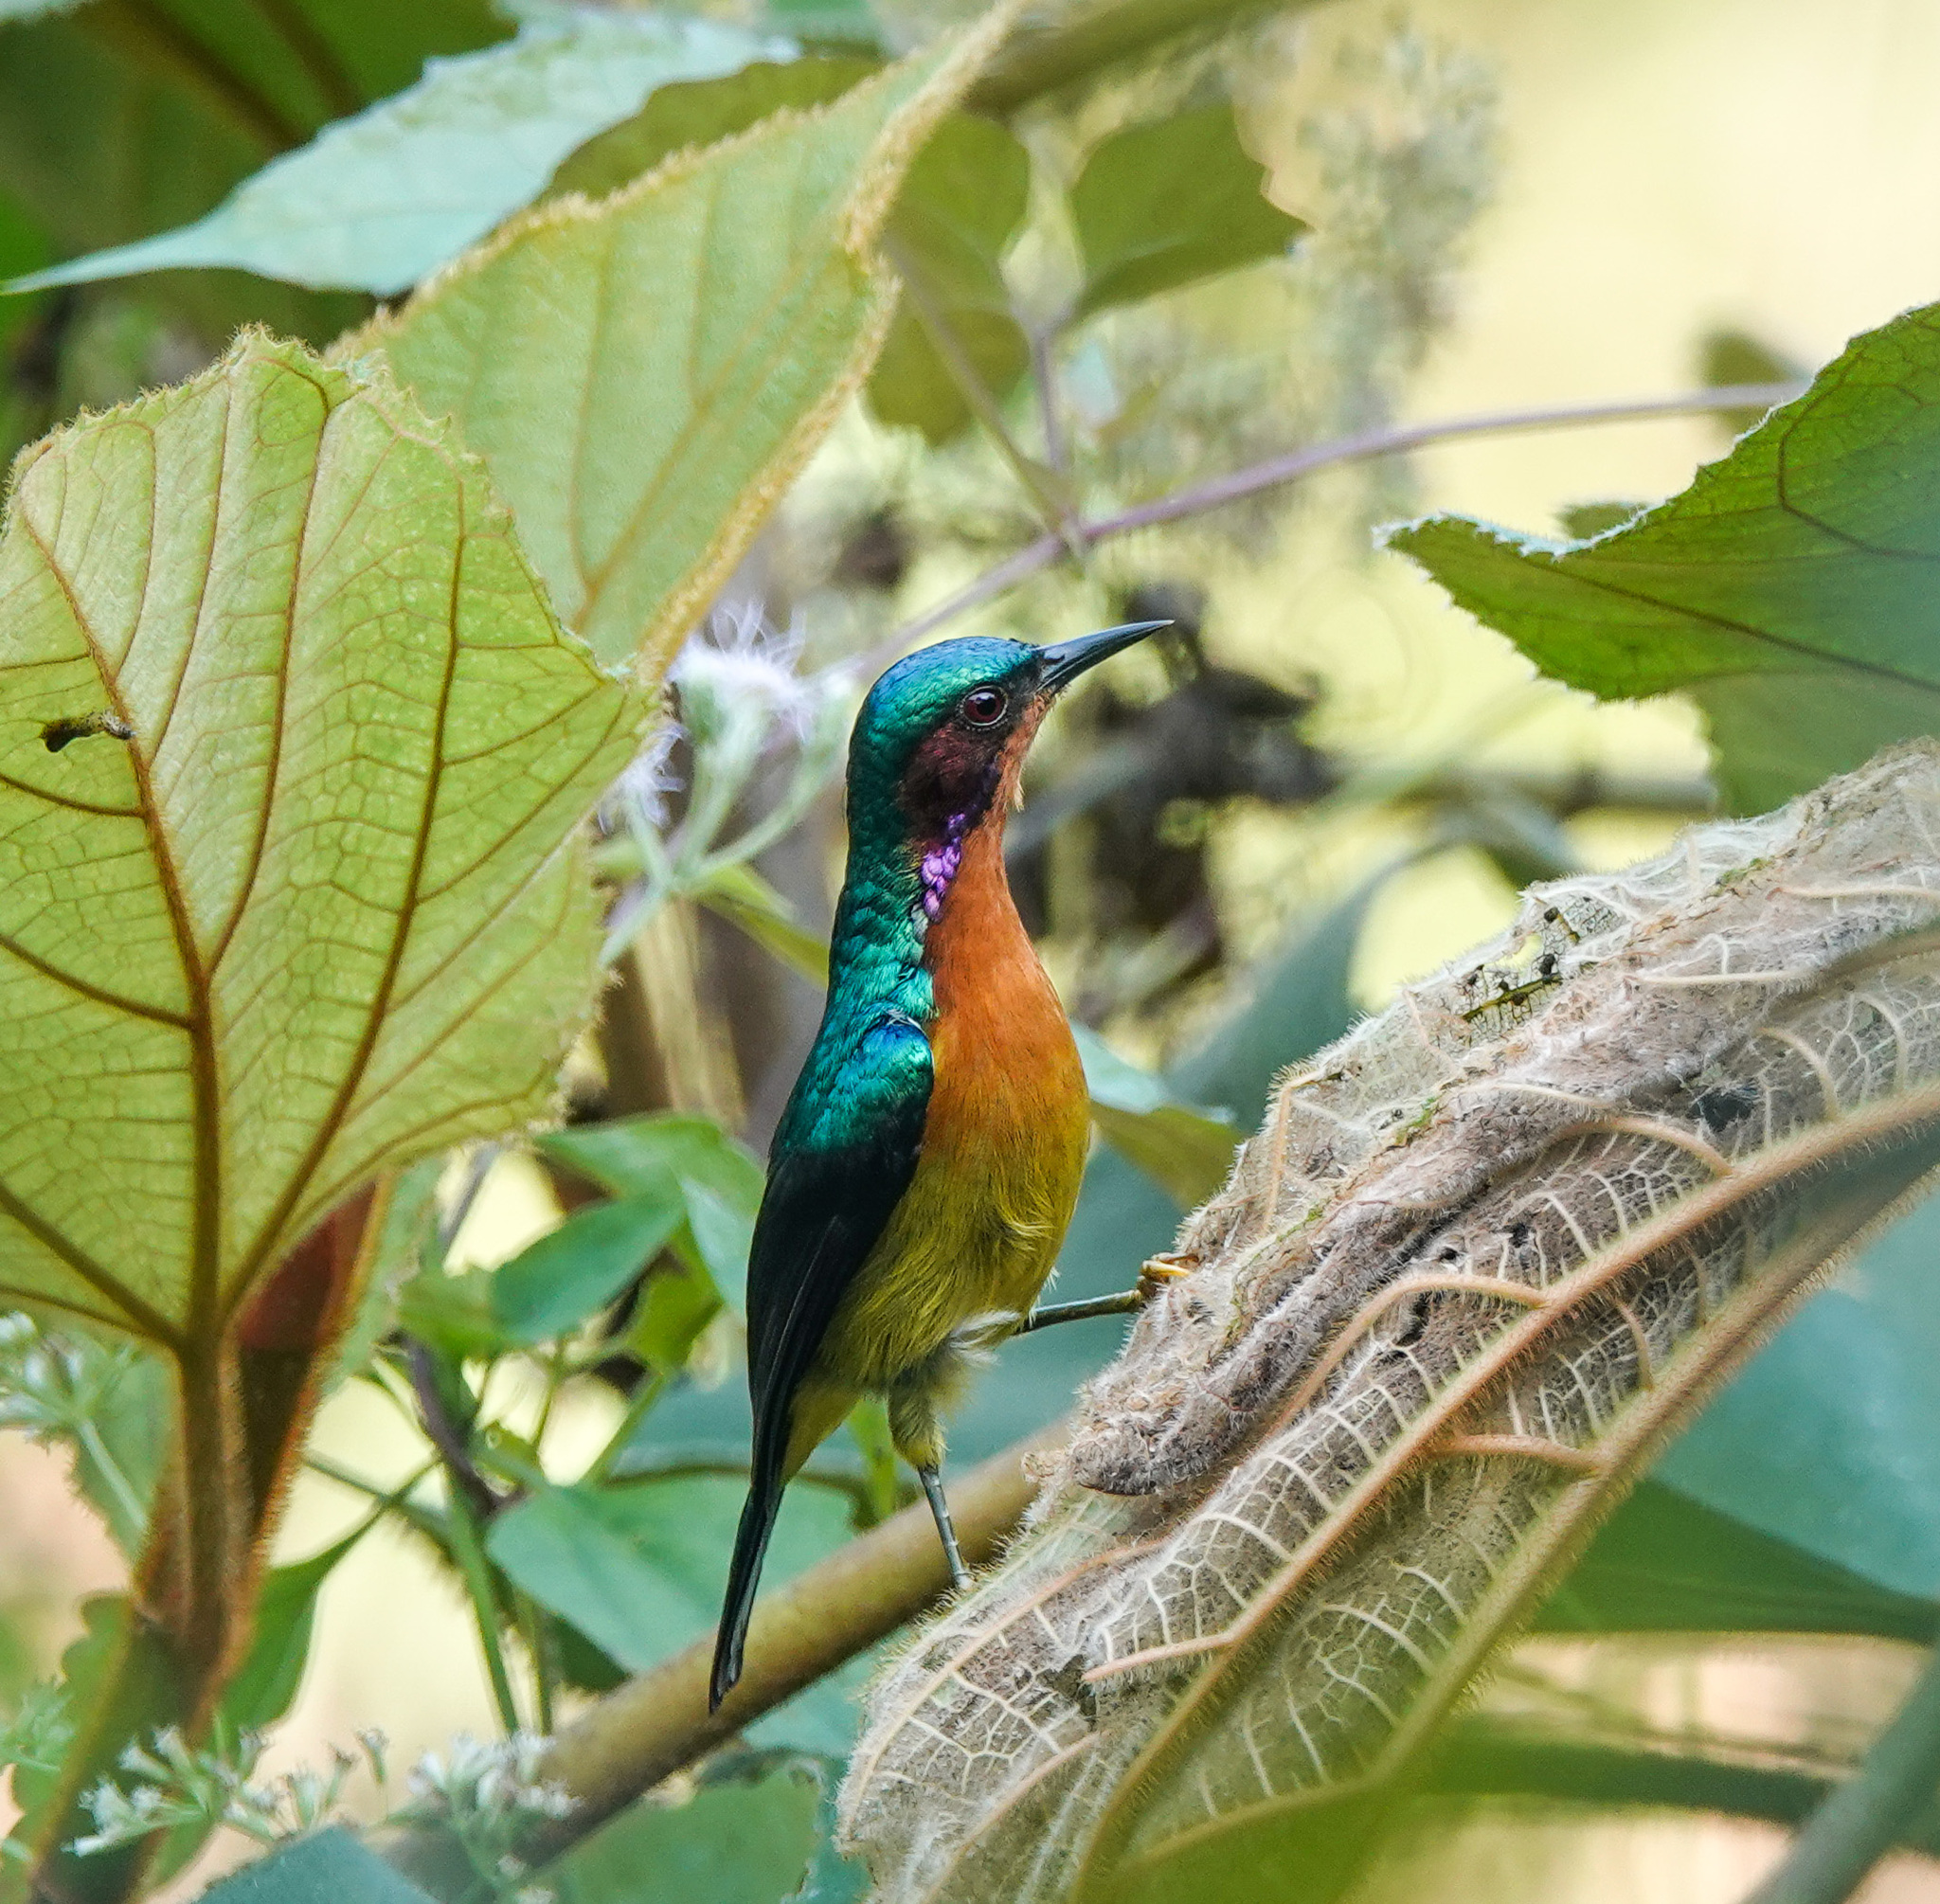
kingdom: Animalia
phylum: Chordata
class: Aves
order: Passeriformes
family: Nectariniidae
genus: Chalcoparia
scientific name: Chalcoparia singalensis
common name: Ruby-cheeked sunbird
